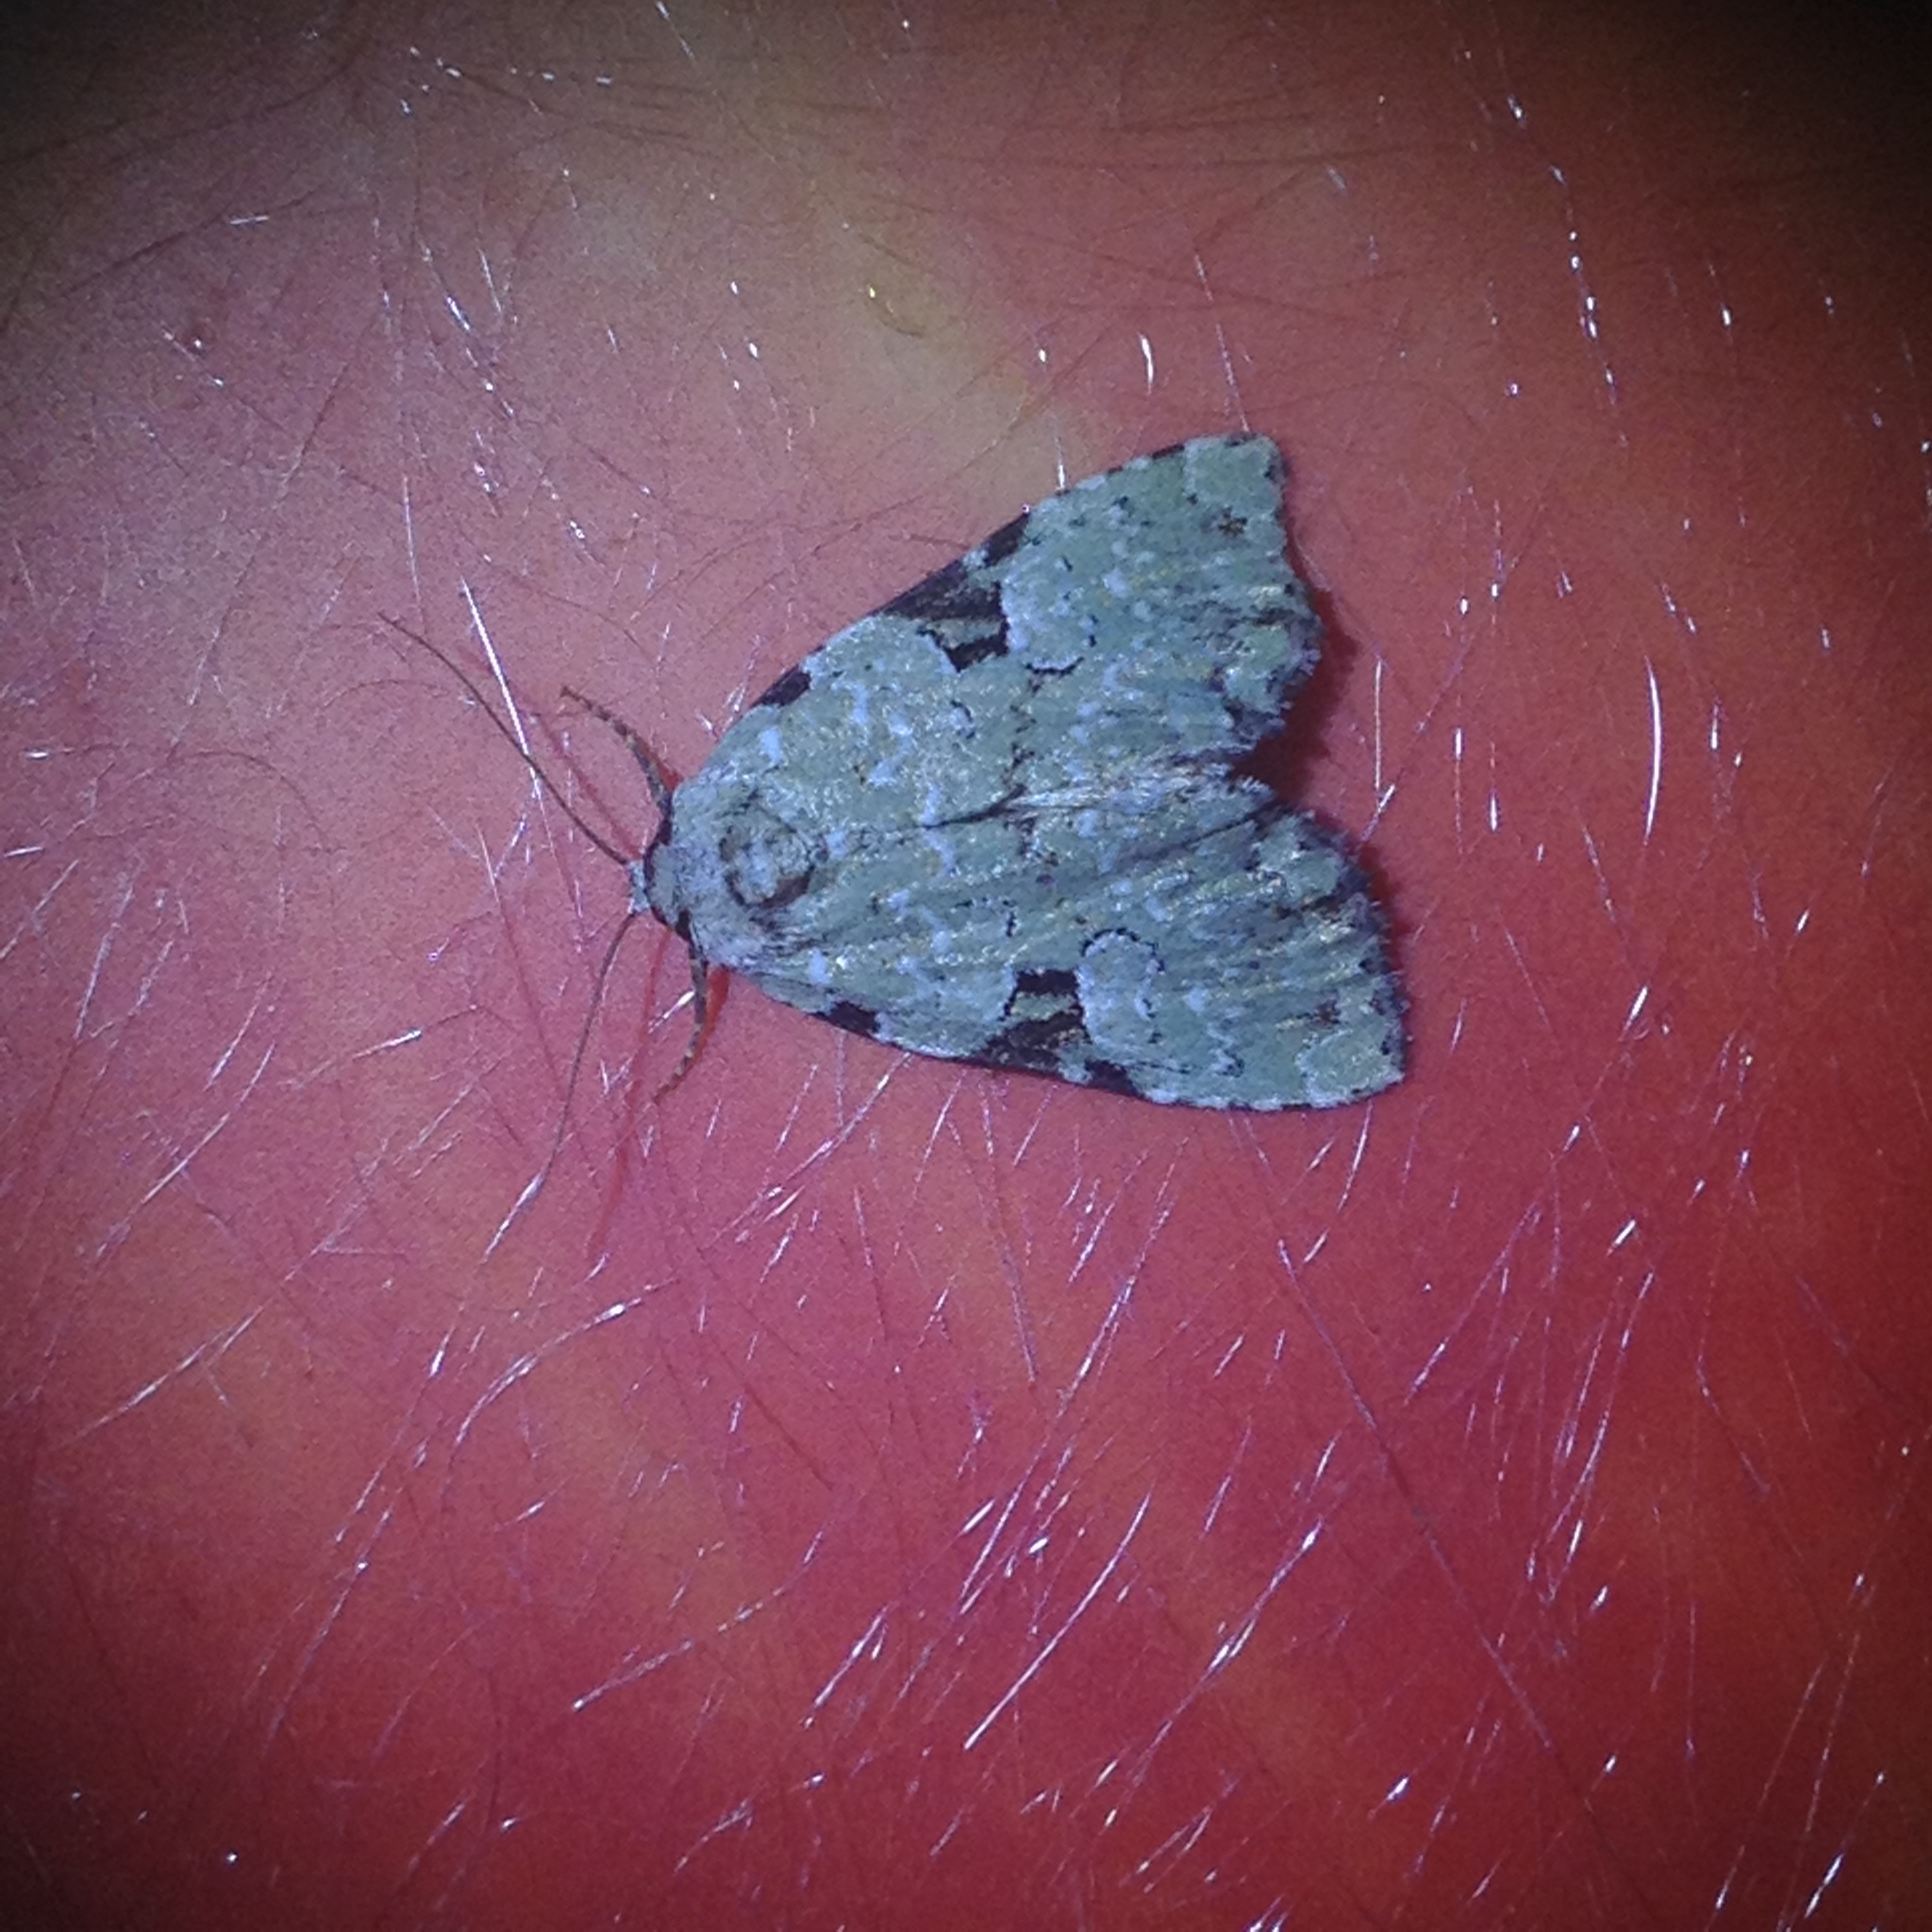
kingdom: Animalia
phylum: Arthropoda
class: Insecta
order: Lepidoptera
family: Noctuidae
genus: Leuconycta
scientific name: Leuconycta diphteroides
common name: Green leuconycta moth
